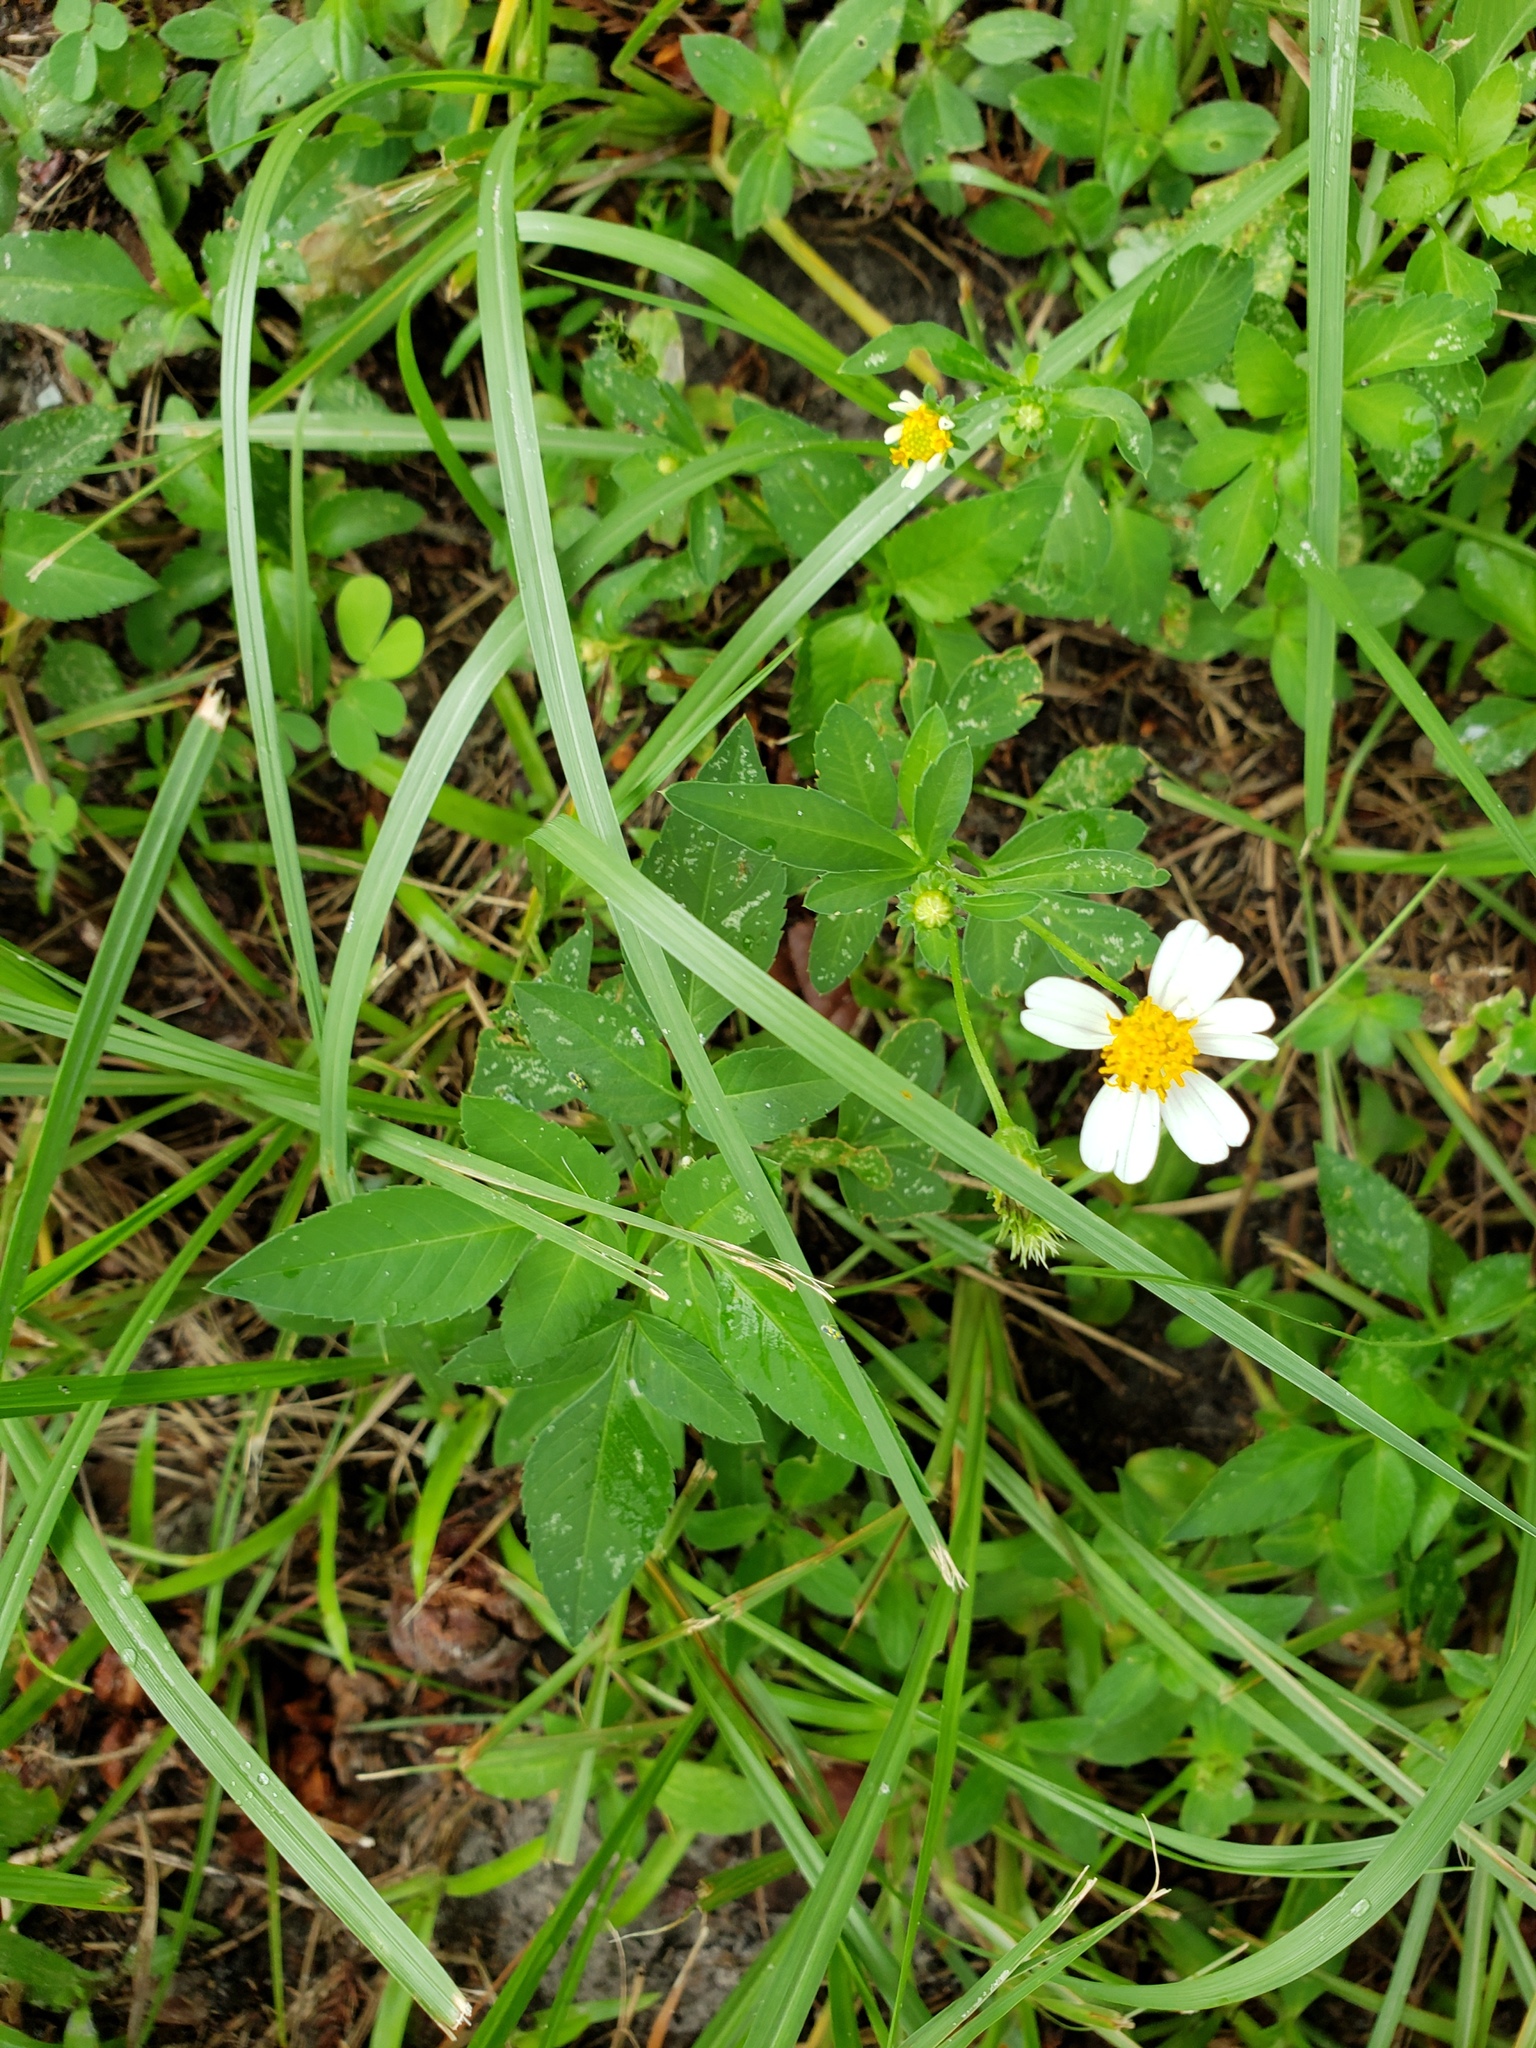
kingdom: Plantae
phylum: Tracheophyta
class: Magnoliopsida
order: Asterales
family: Asteraceae
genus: Bidens
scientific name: Bidens alba
